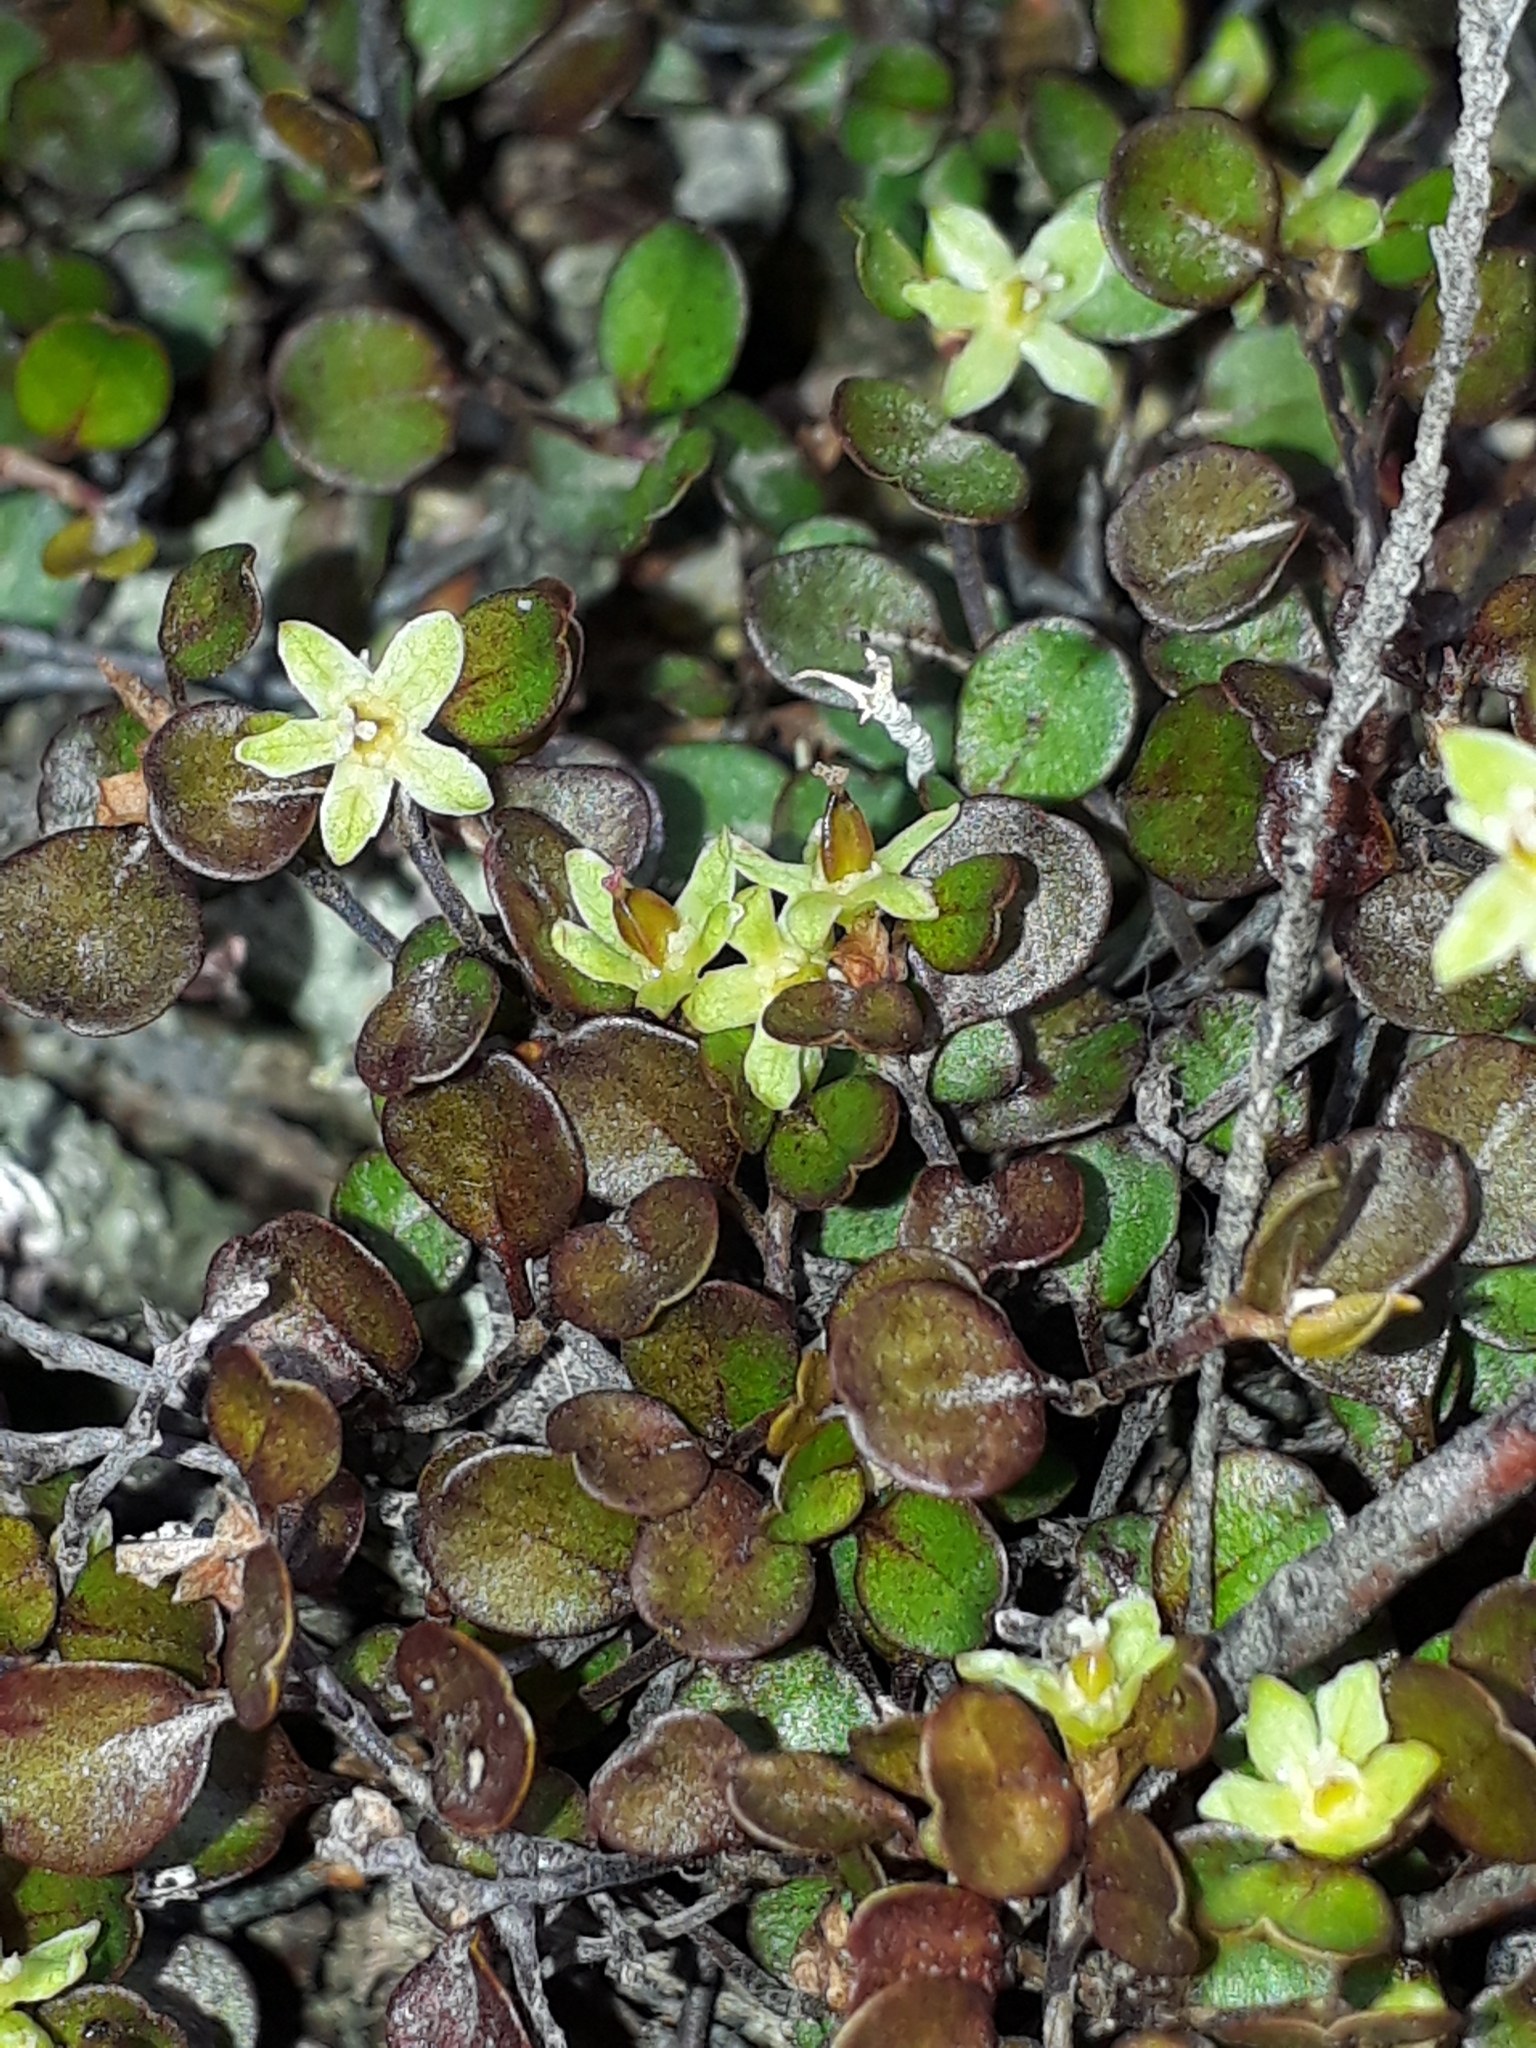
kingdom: Plantae
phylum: Tracheophyta
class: Magnoliopsida
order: Caryophyllales
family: Polygonaceae
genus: Muehlenbeckia
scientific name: Muehlenbeckia axillaris
